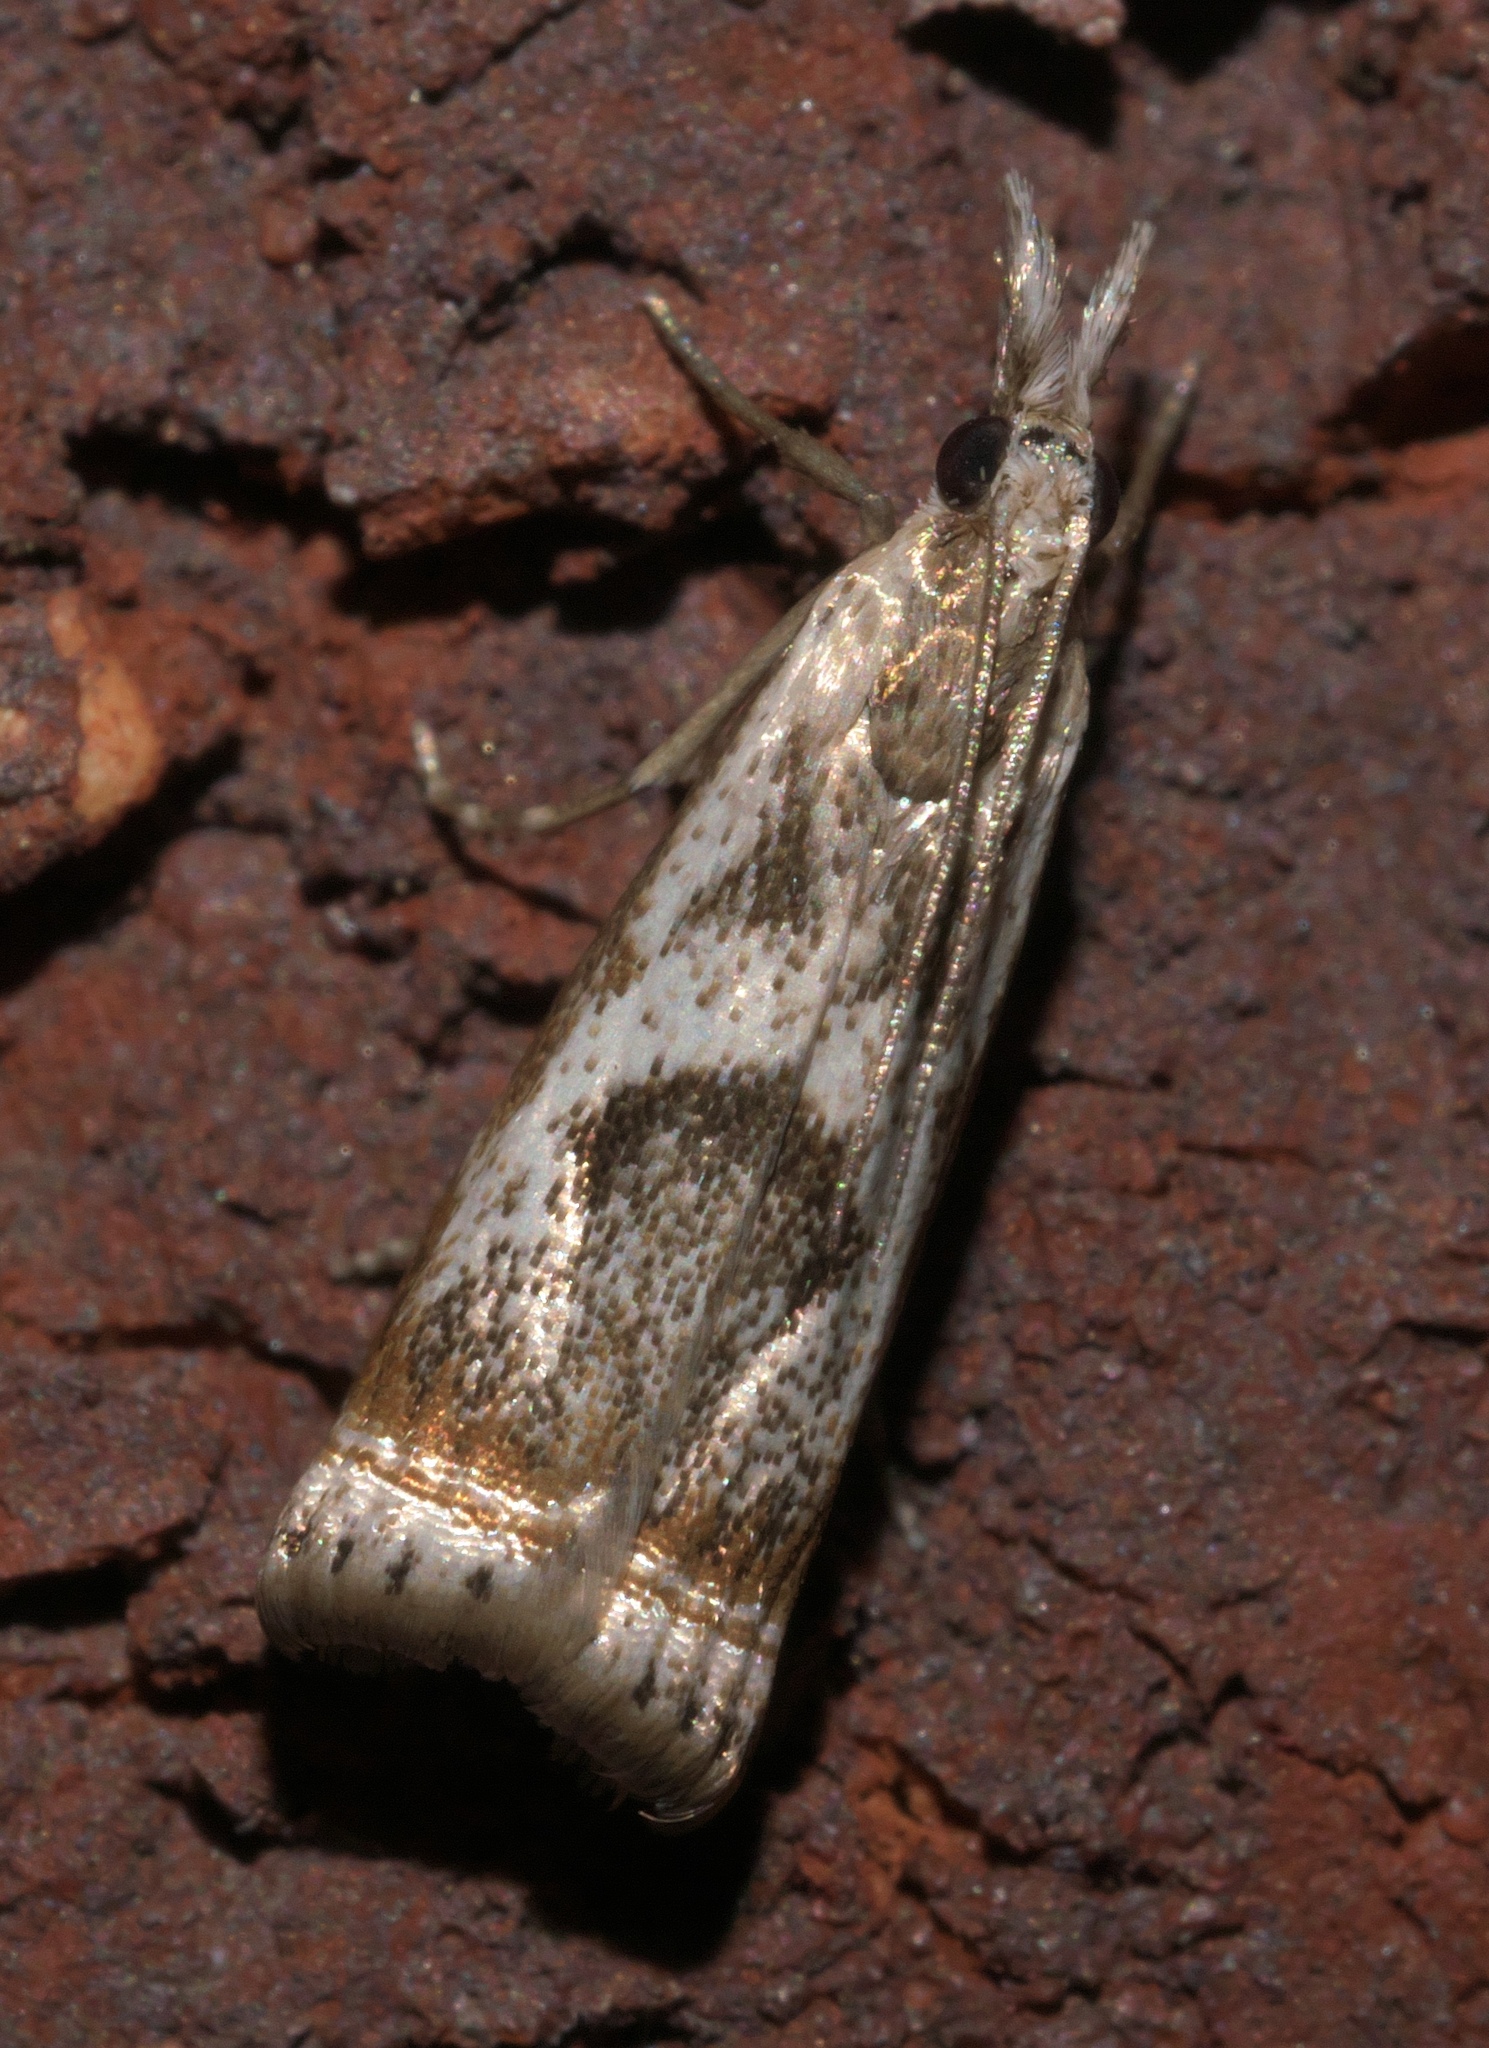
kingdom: Animalia
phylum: Arthropoda
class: Insecta
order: Lepidoptera
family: Crambidae
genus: Microcrambus
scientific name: Microcrambus elegans
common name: Elegant grass-veneer
